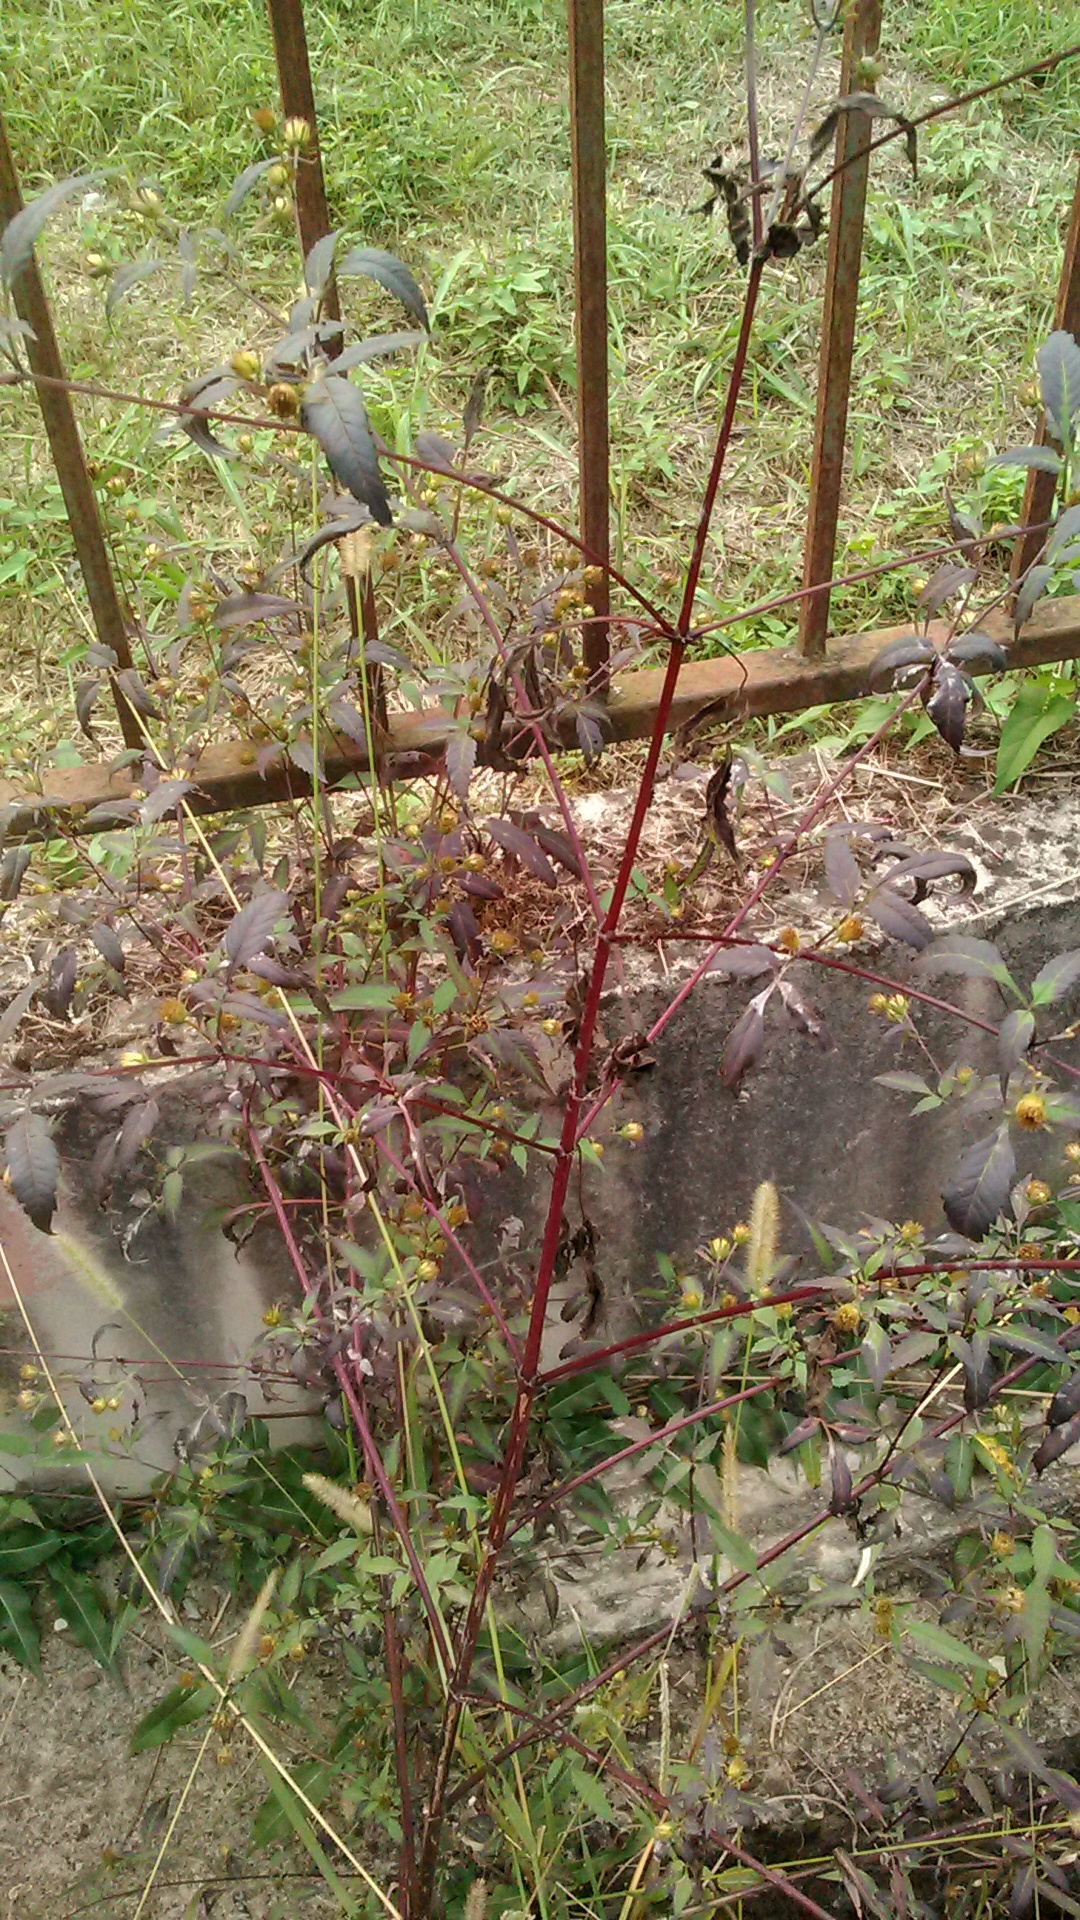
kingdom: Plantae
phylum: Tracheophyta
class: Magnoliopsida
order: Asterales
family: Asteraceae
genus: Bidens
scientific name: Bidens frondosa
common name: Beggarticks
